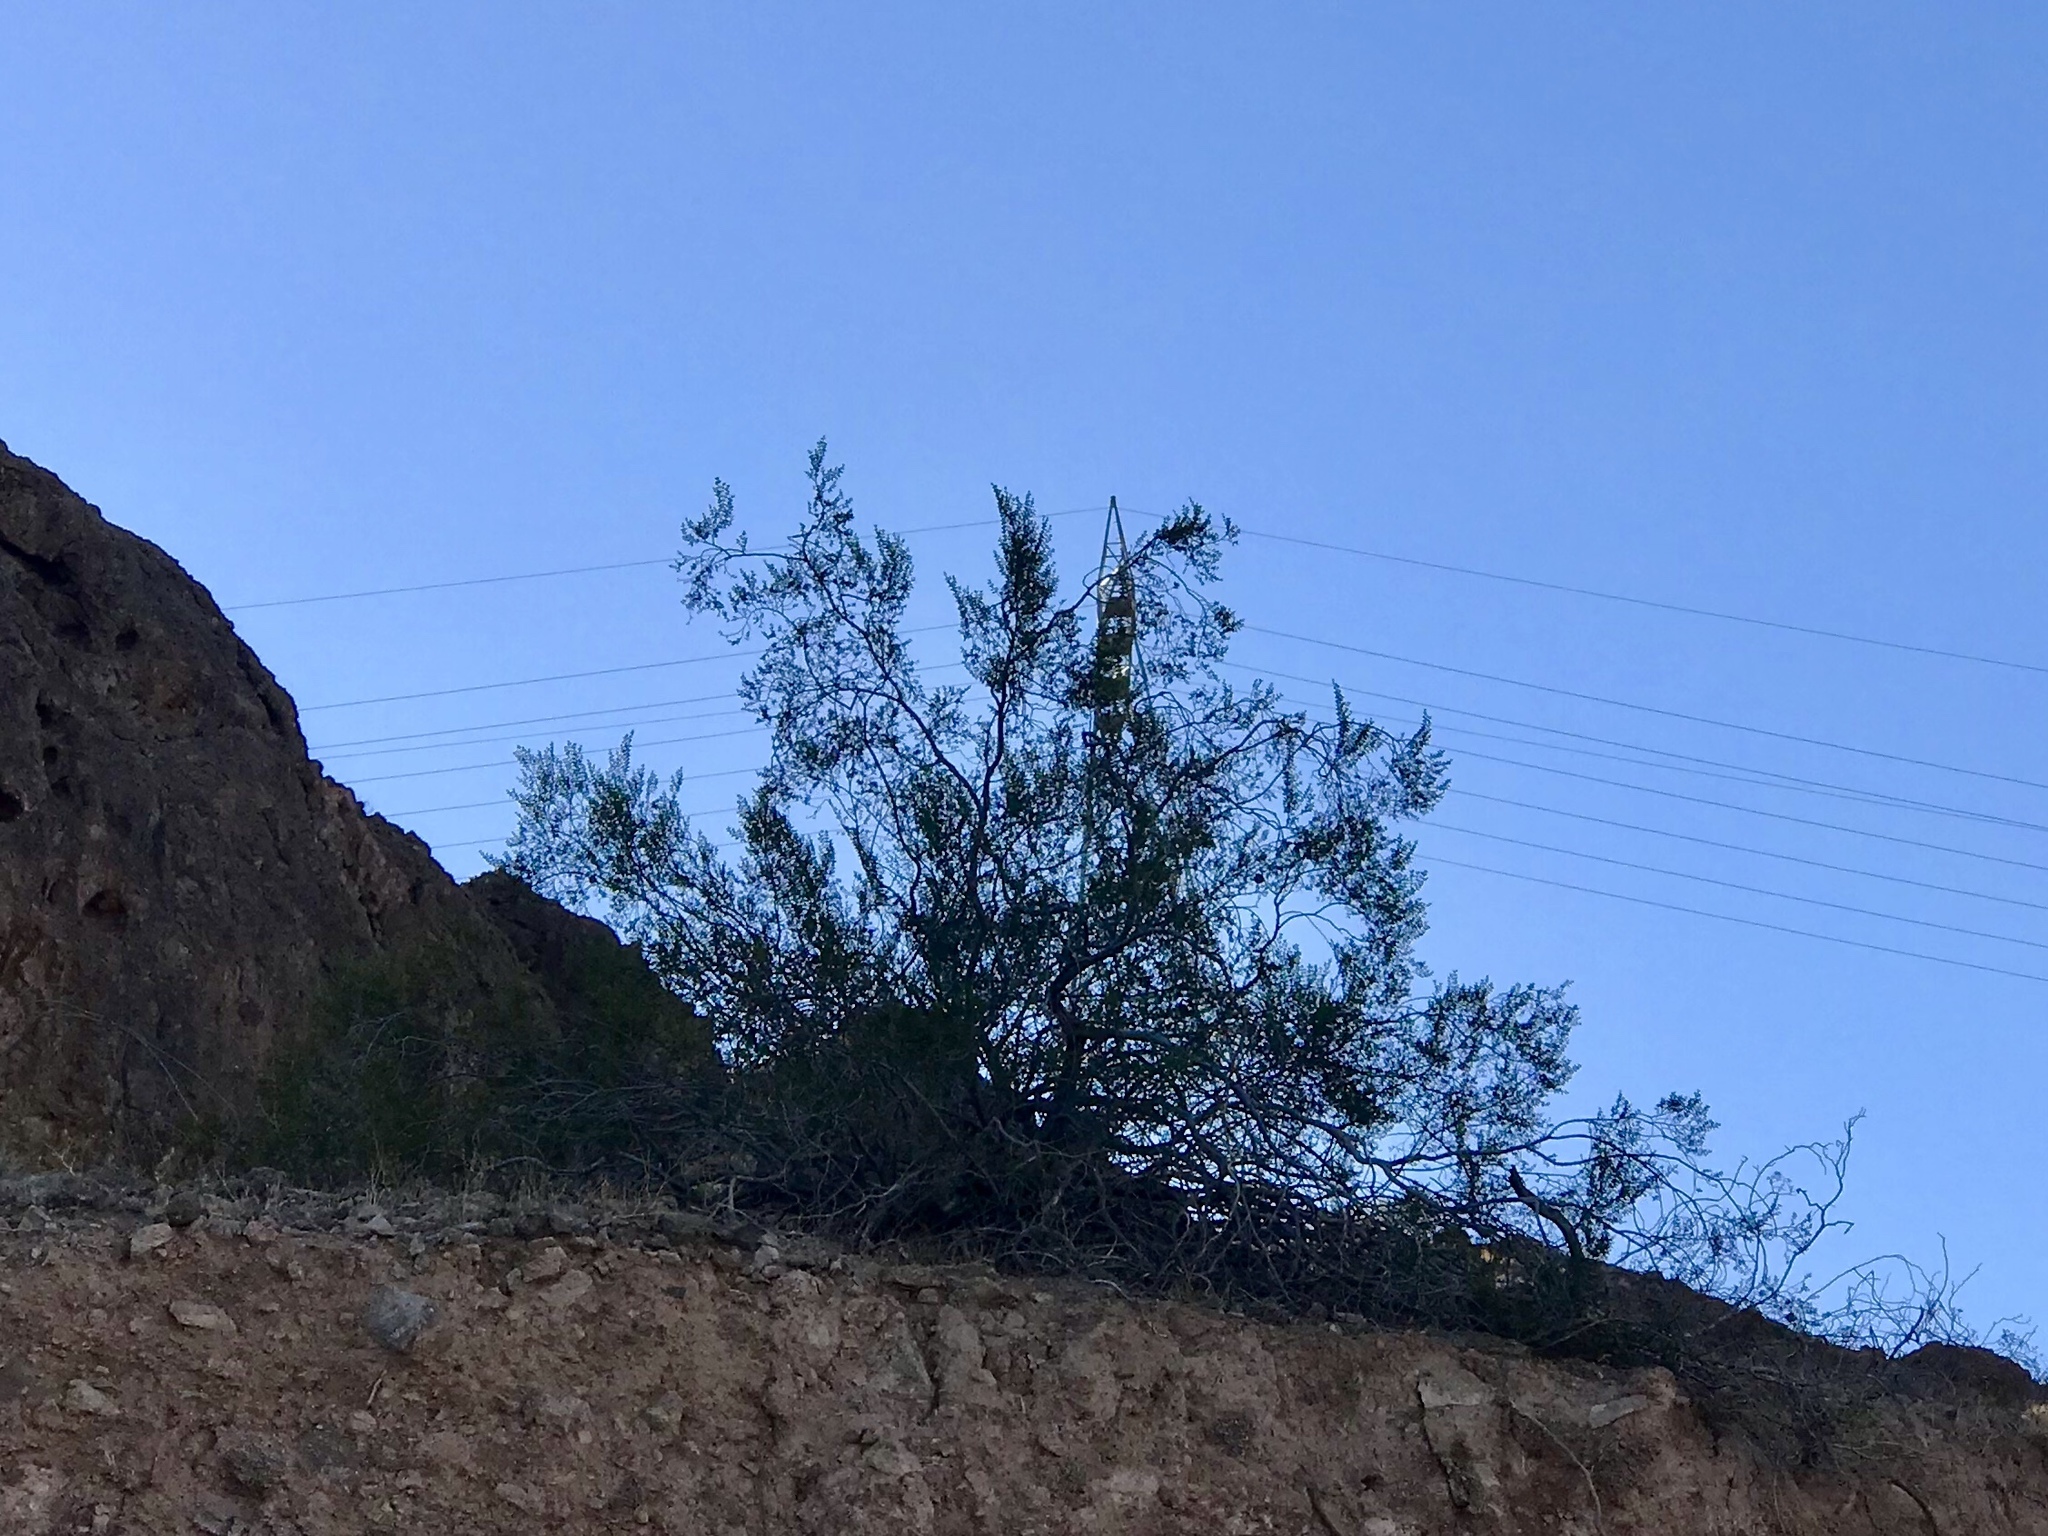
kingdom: Plantae
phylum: Tracheophyta
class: Magnoliopsida
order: Zygophyllales
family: Zygophyllaceae
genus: Larrea
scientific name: Larrea tridentata
